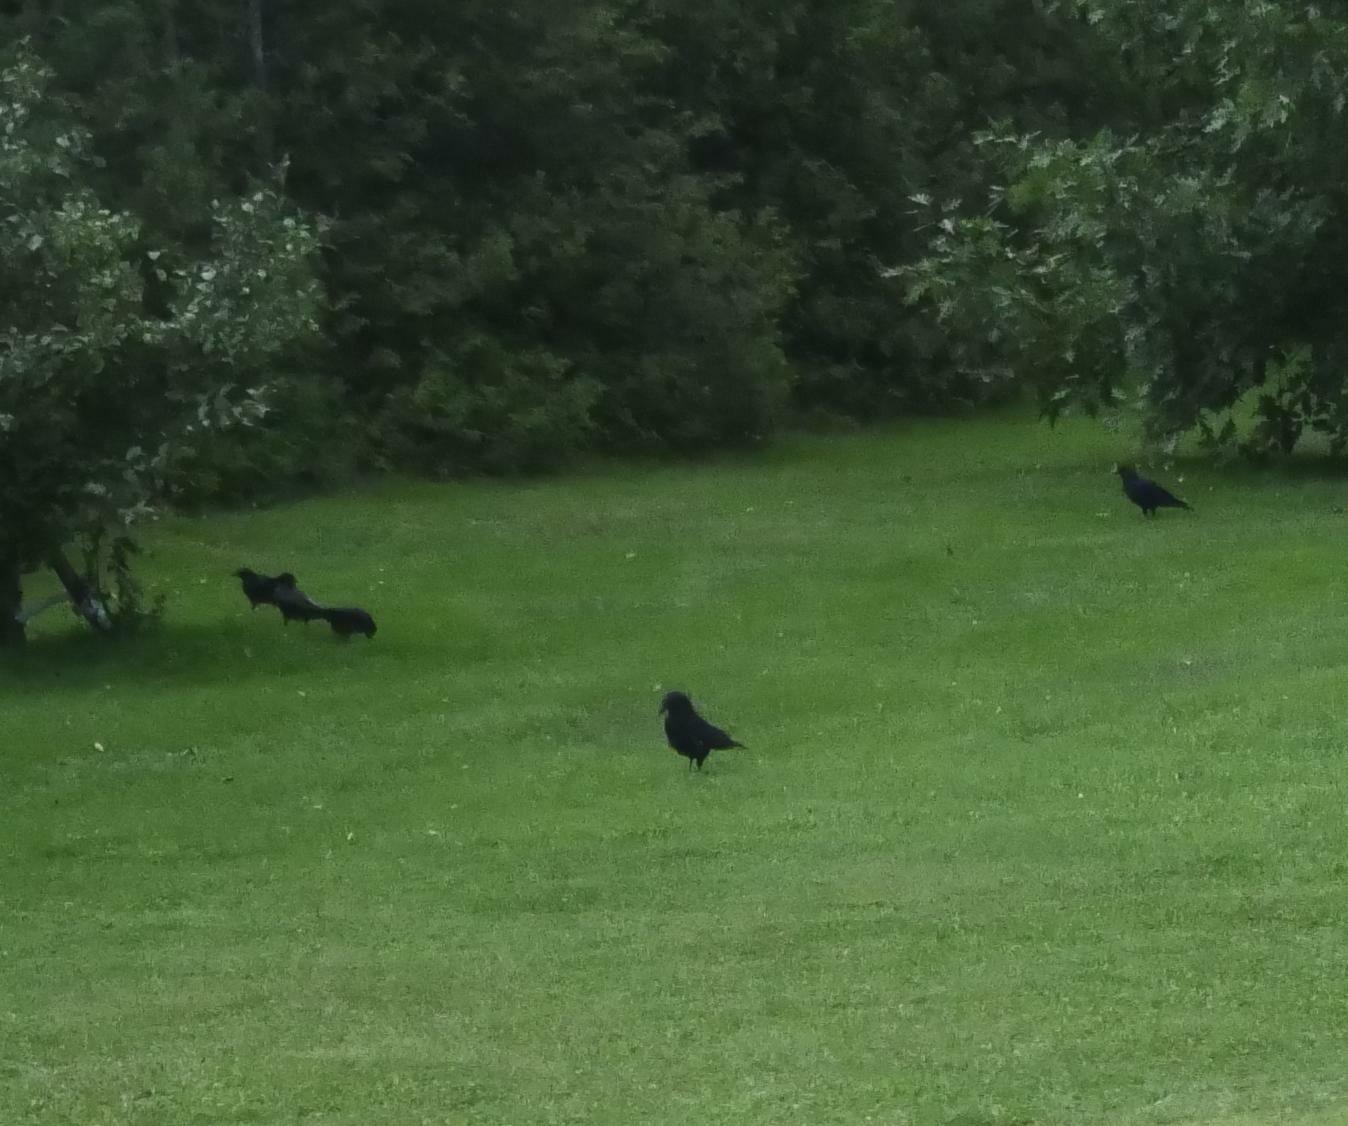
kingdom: Animalia
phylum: Chordata
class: Aves
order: Passeriformes
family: Corvidae
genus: Corvus
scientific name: Corvus brachyrhynchos
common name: American crow
